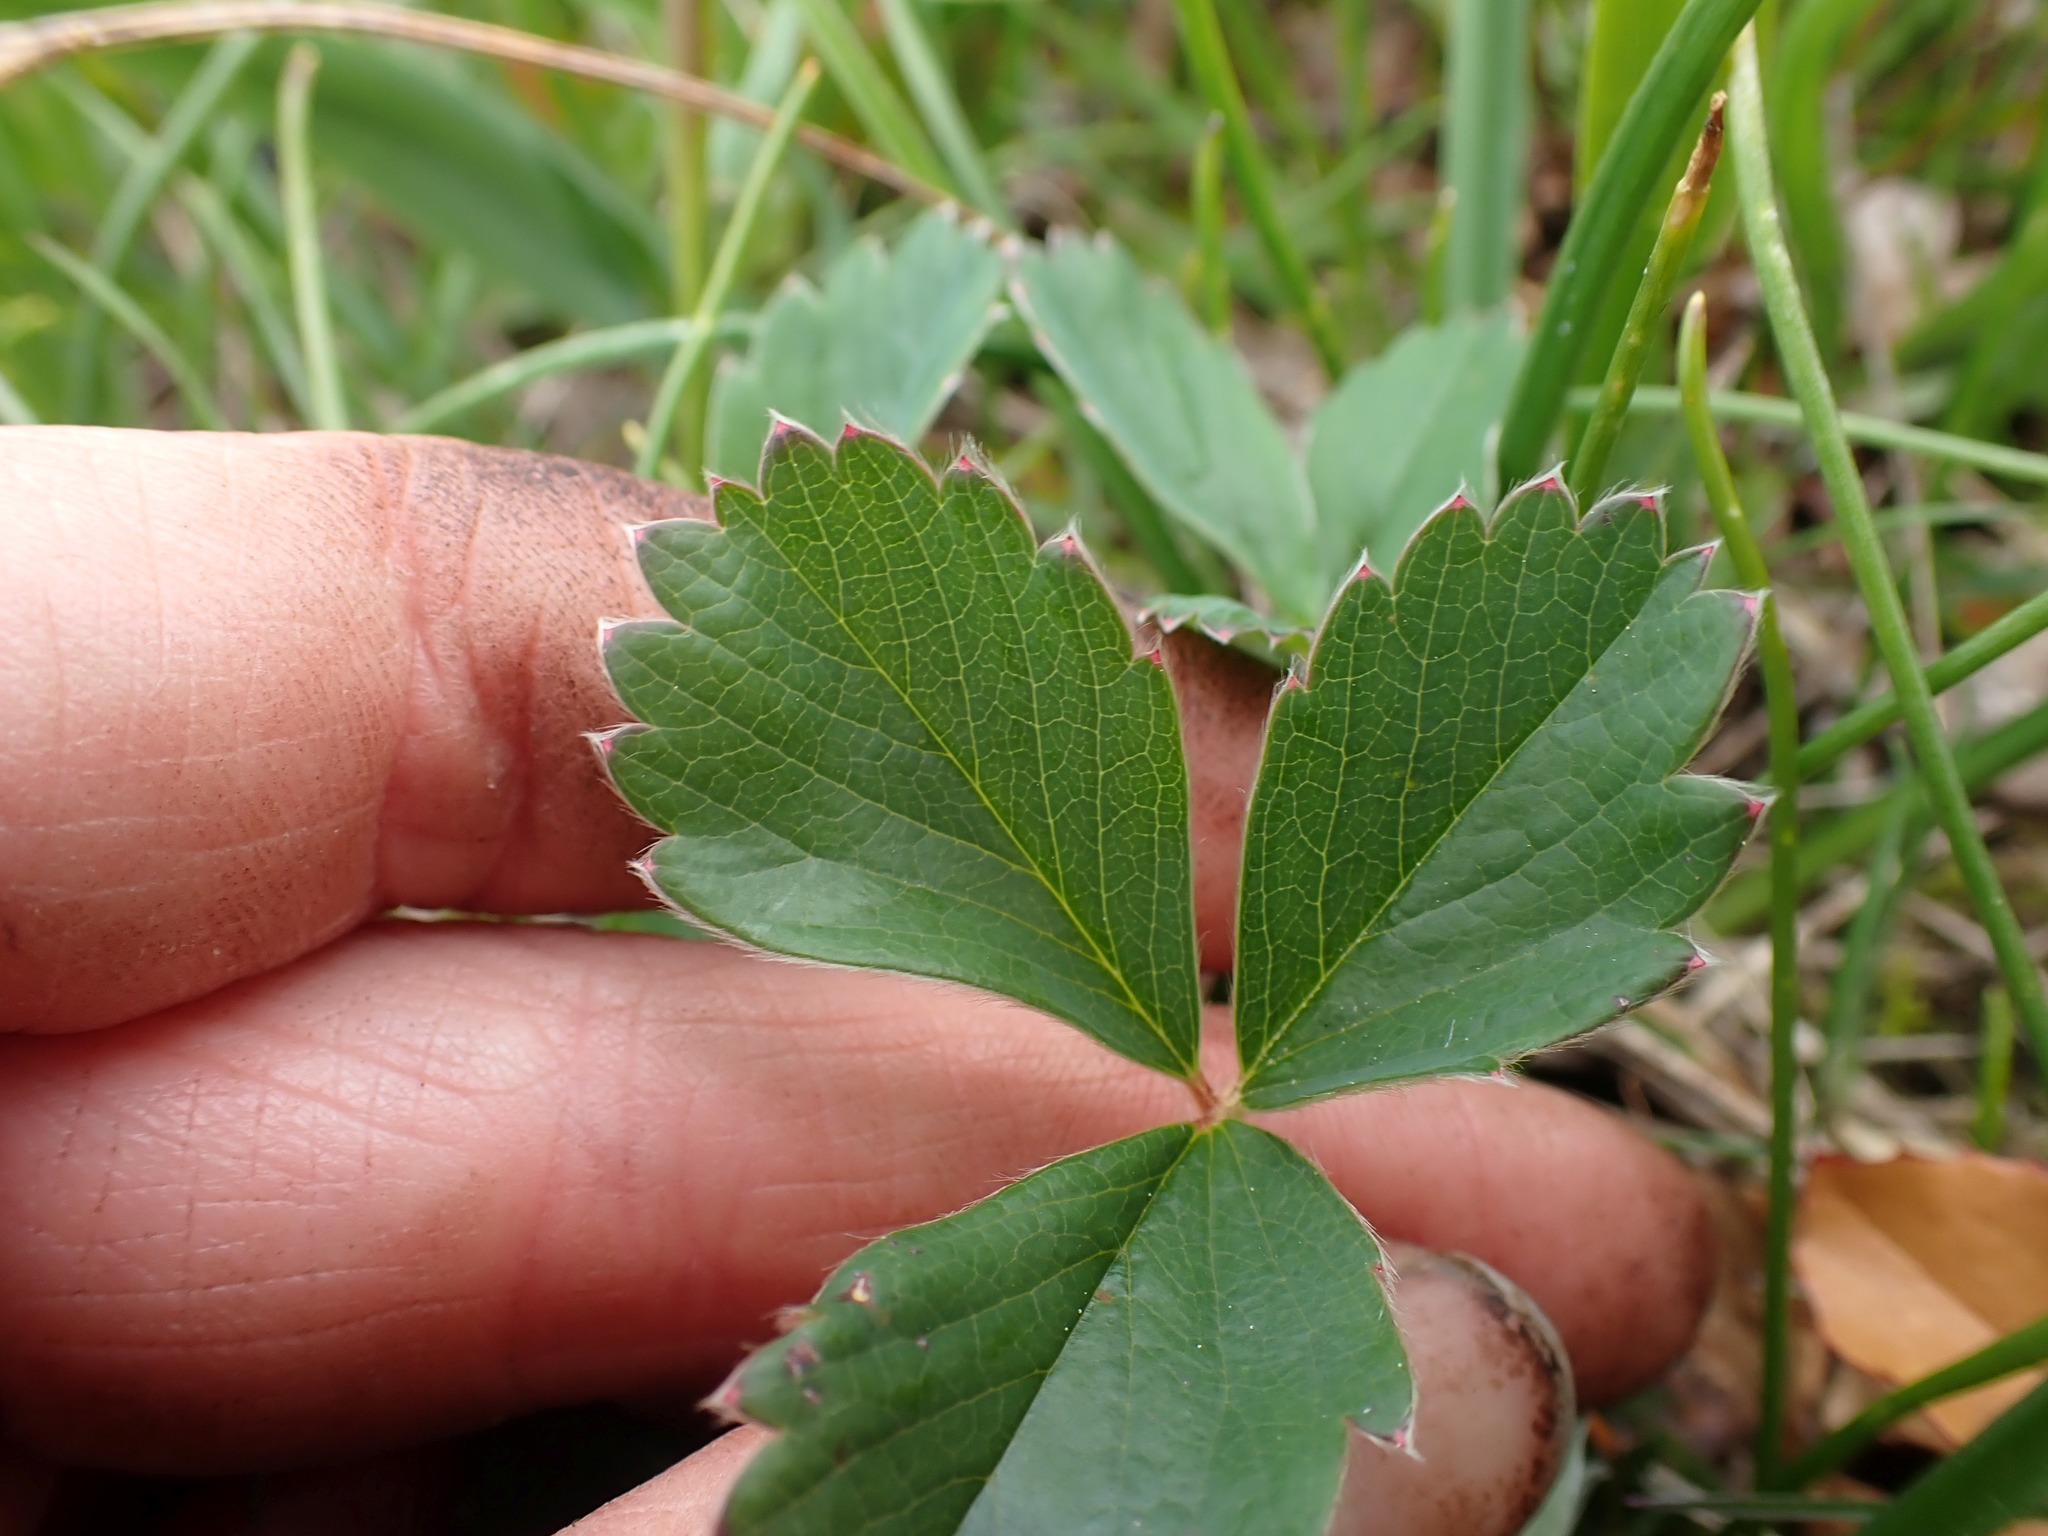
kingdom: Plantae
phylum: Tracheophyta
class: Magnoliopsida
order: Rosales
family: Rosaceae
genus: Fragaria
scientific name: Fragaria virginiana
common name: Thickleaved wild strawberry
